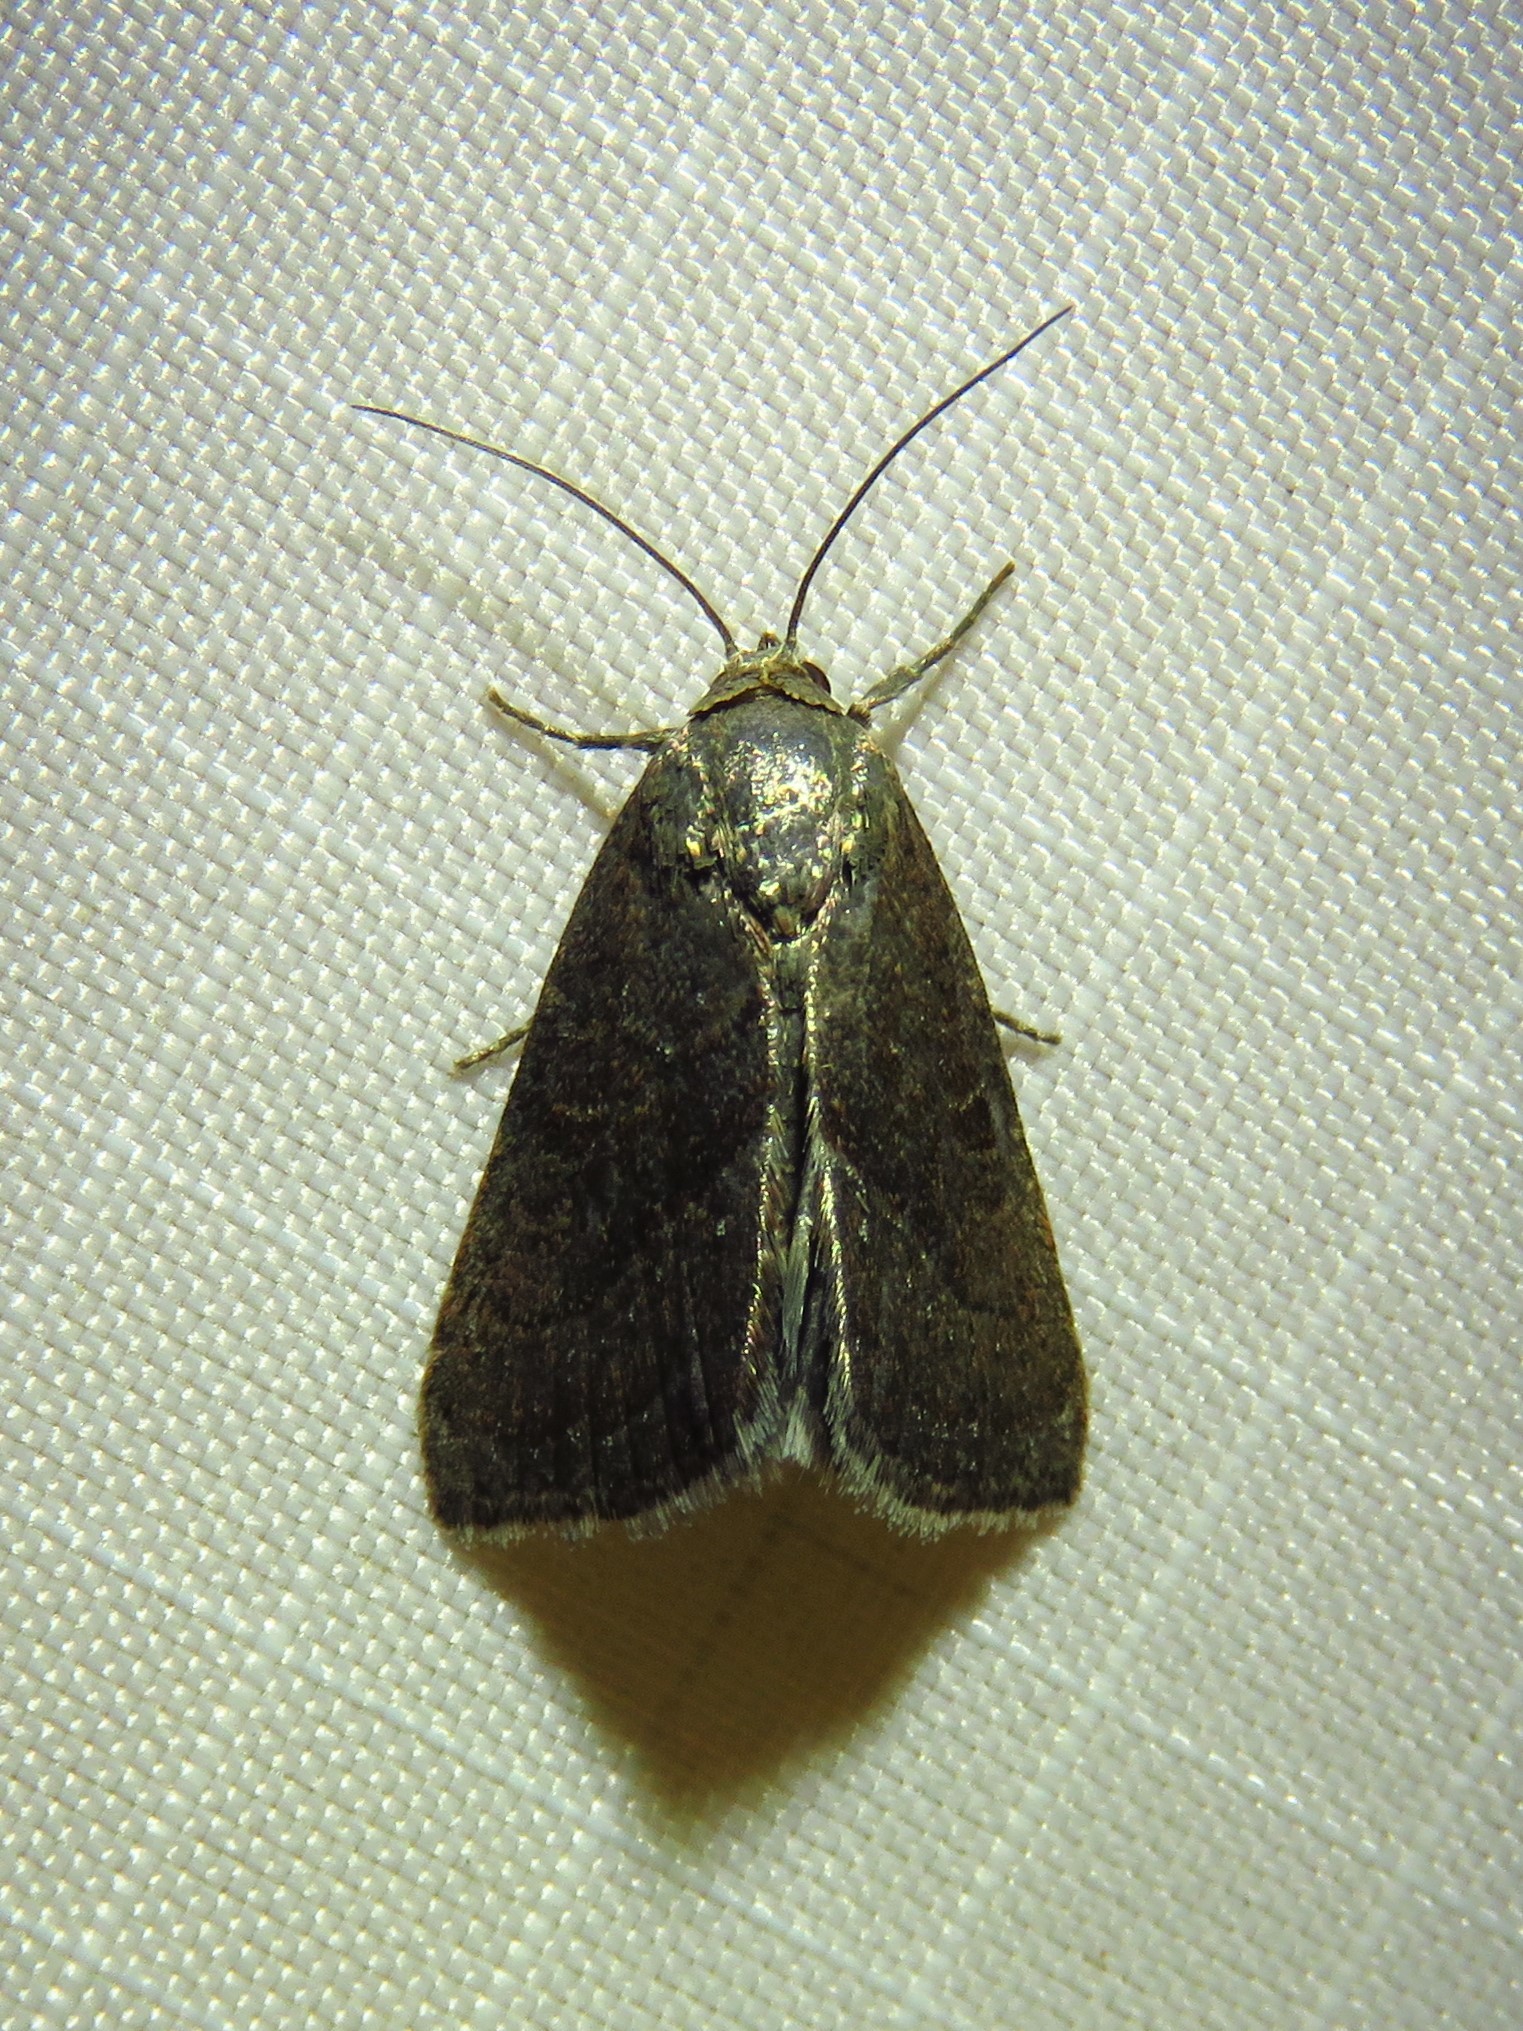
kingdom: Animalia
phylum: Arthropoda
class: Insecta
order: Lepidoptera
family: Noctuidae
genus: Galgula
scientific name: Galgula partita
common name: Wedgeling
